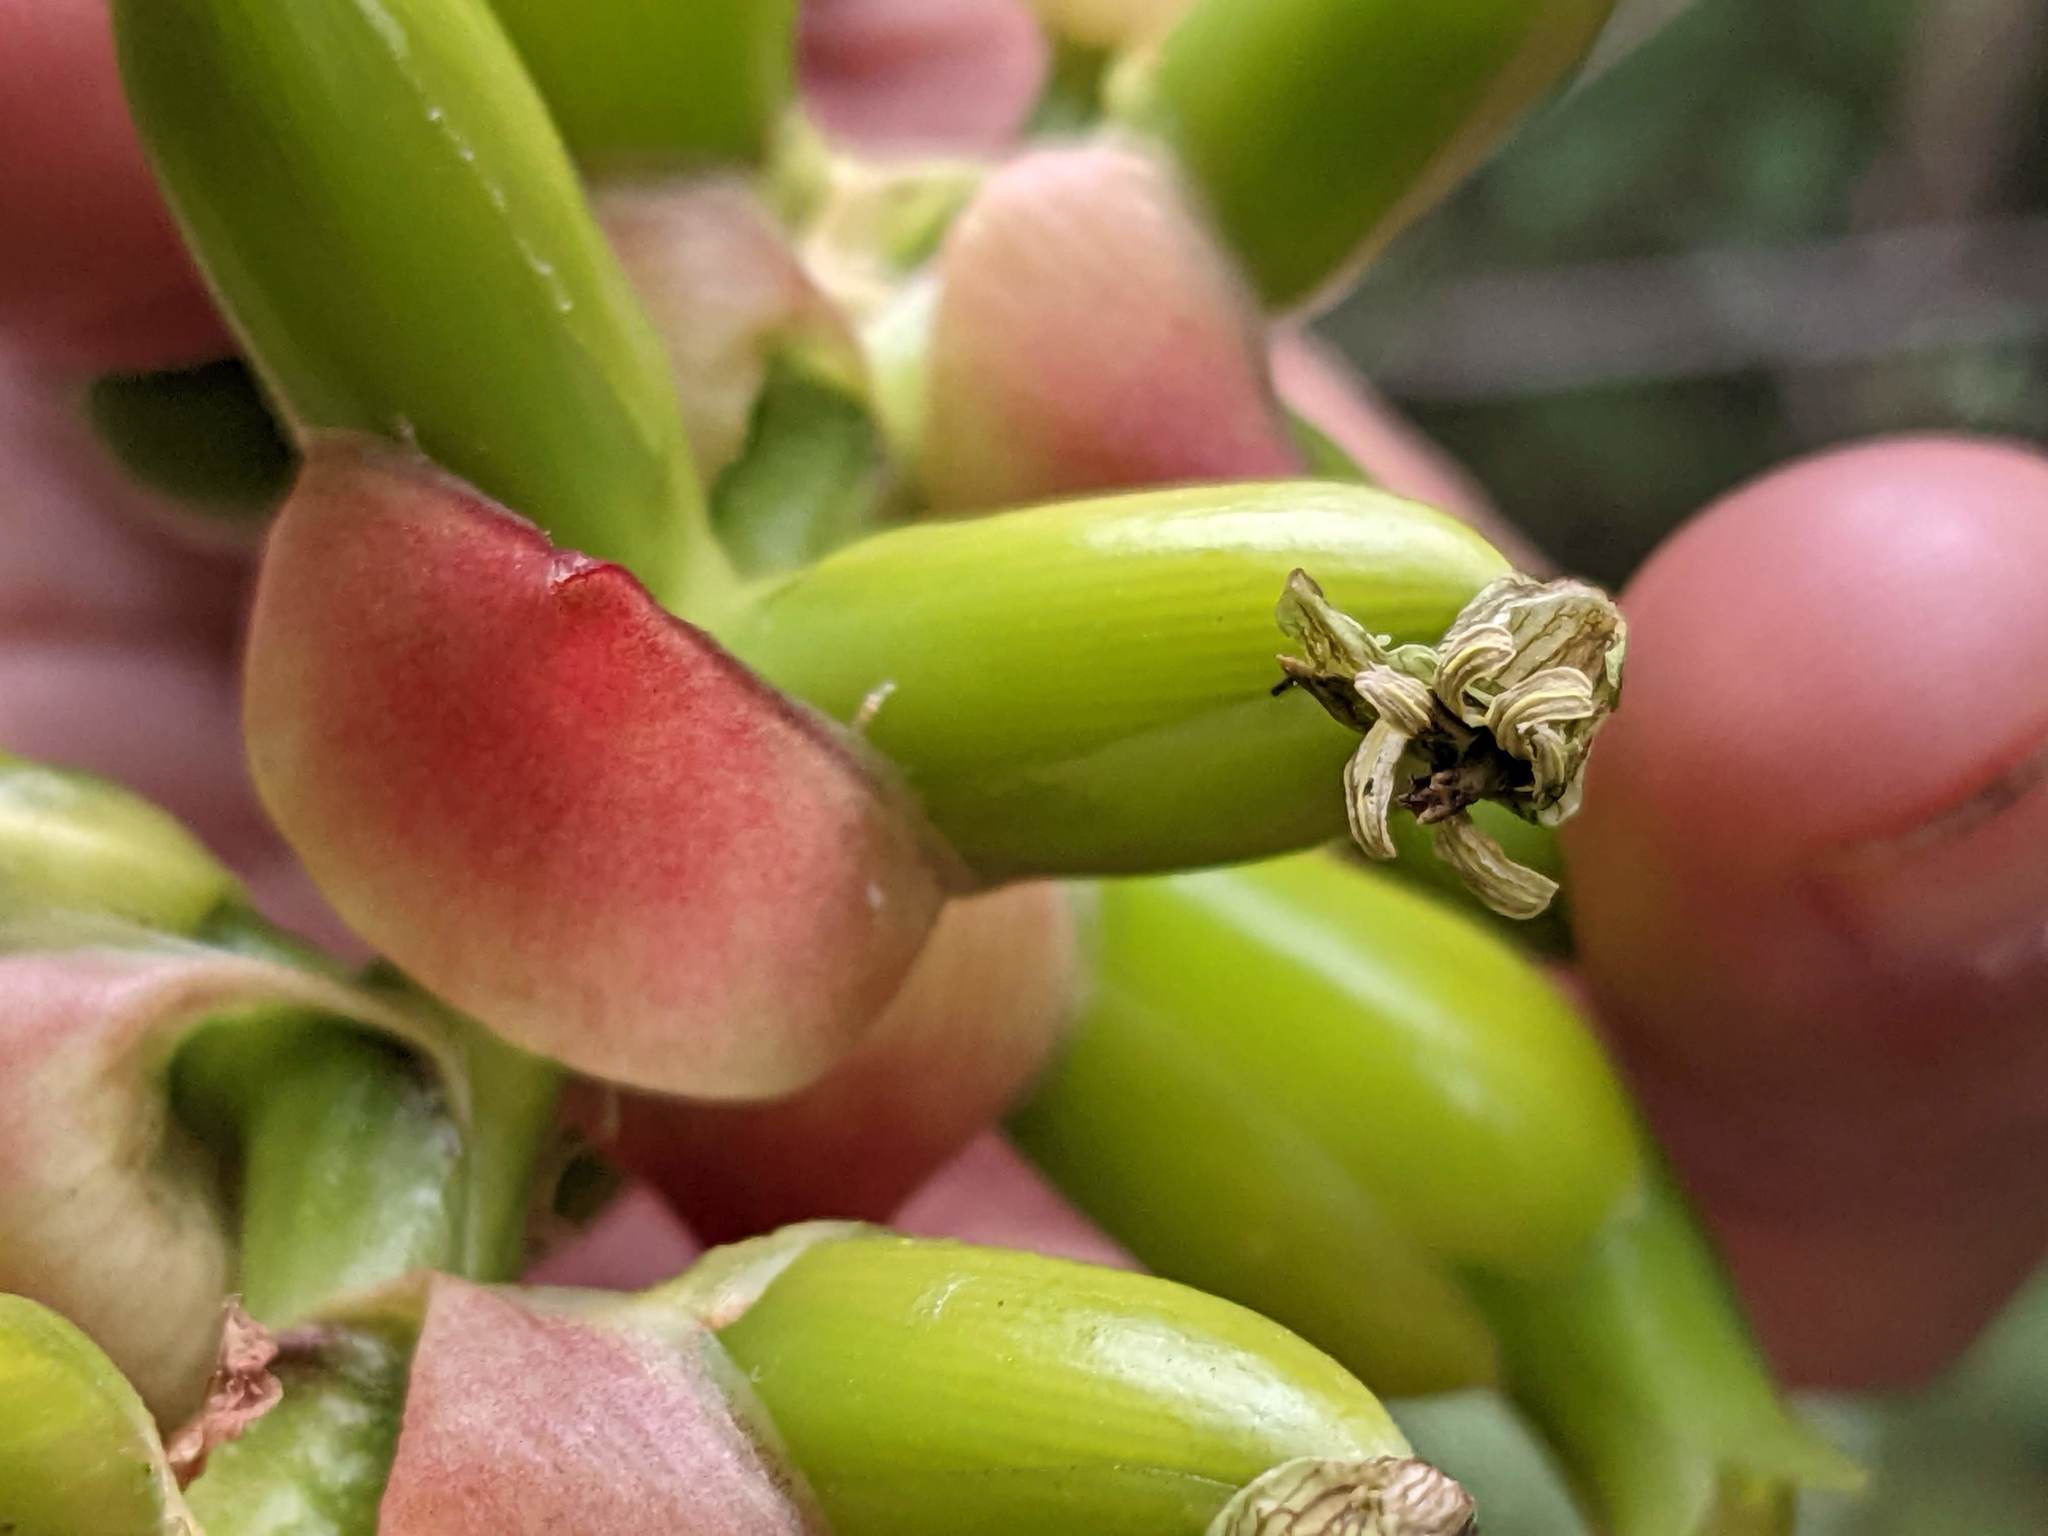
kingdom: Plantae
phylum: Tracheophyta
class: Liliopsida
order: Poales
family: Bromeliaceae
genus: Werauhia
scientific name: Werauhia ororiensis
